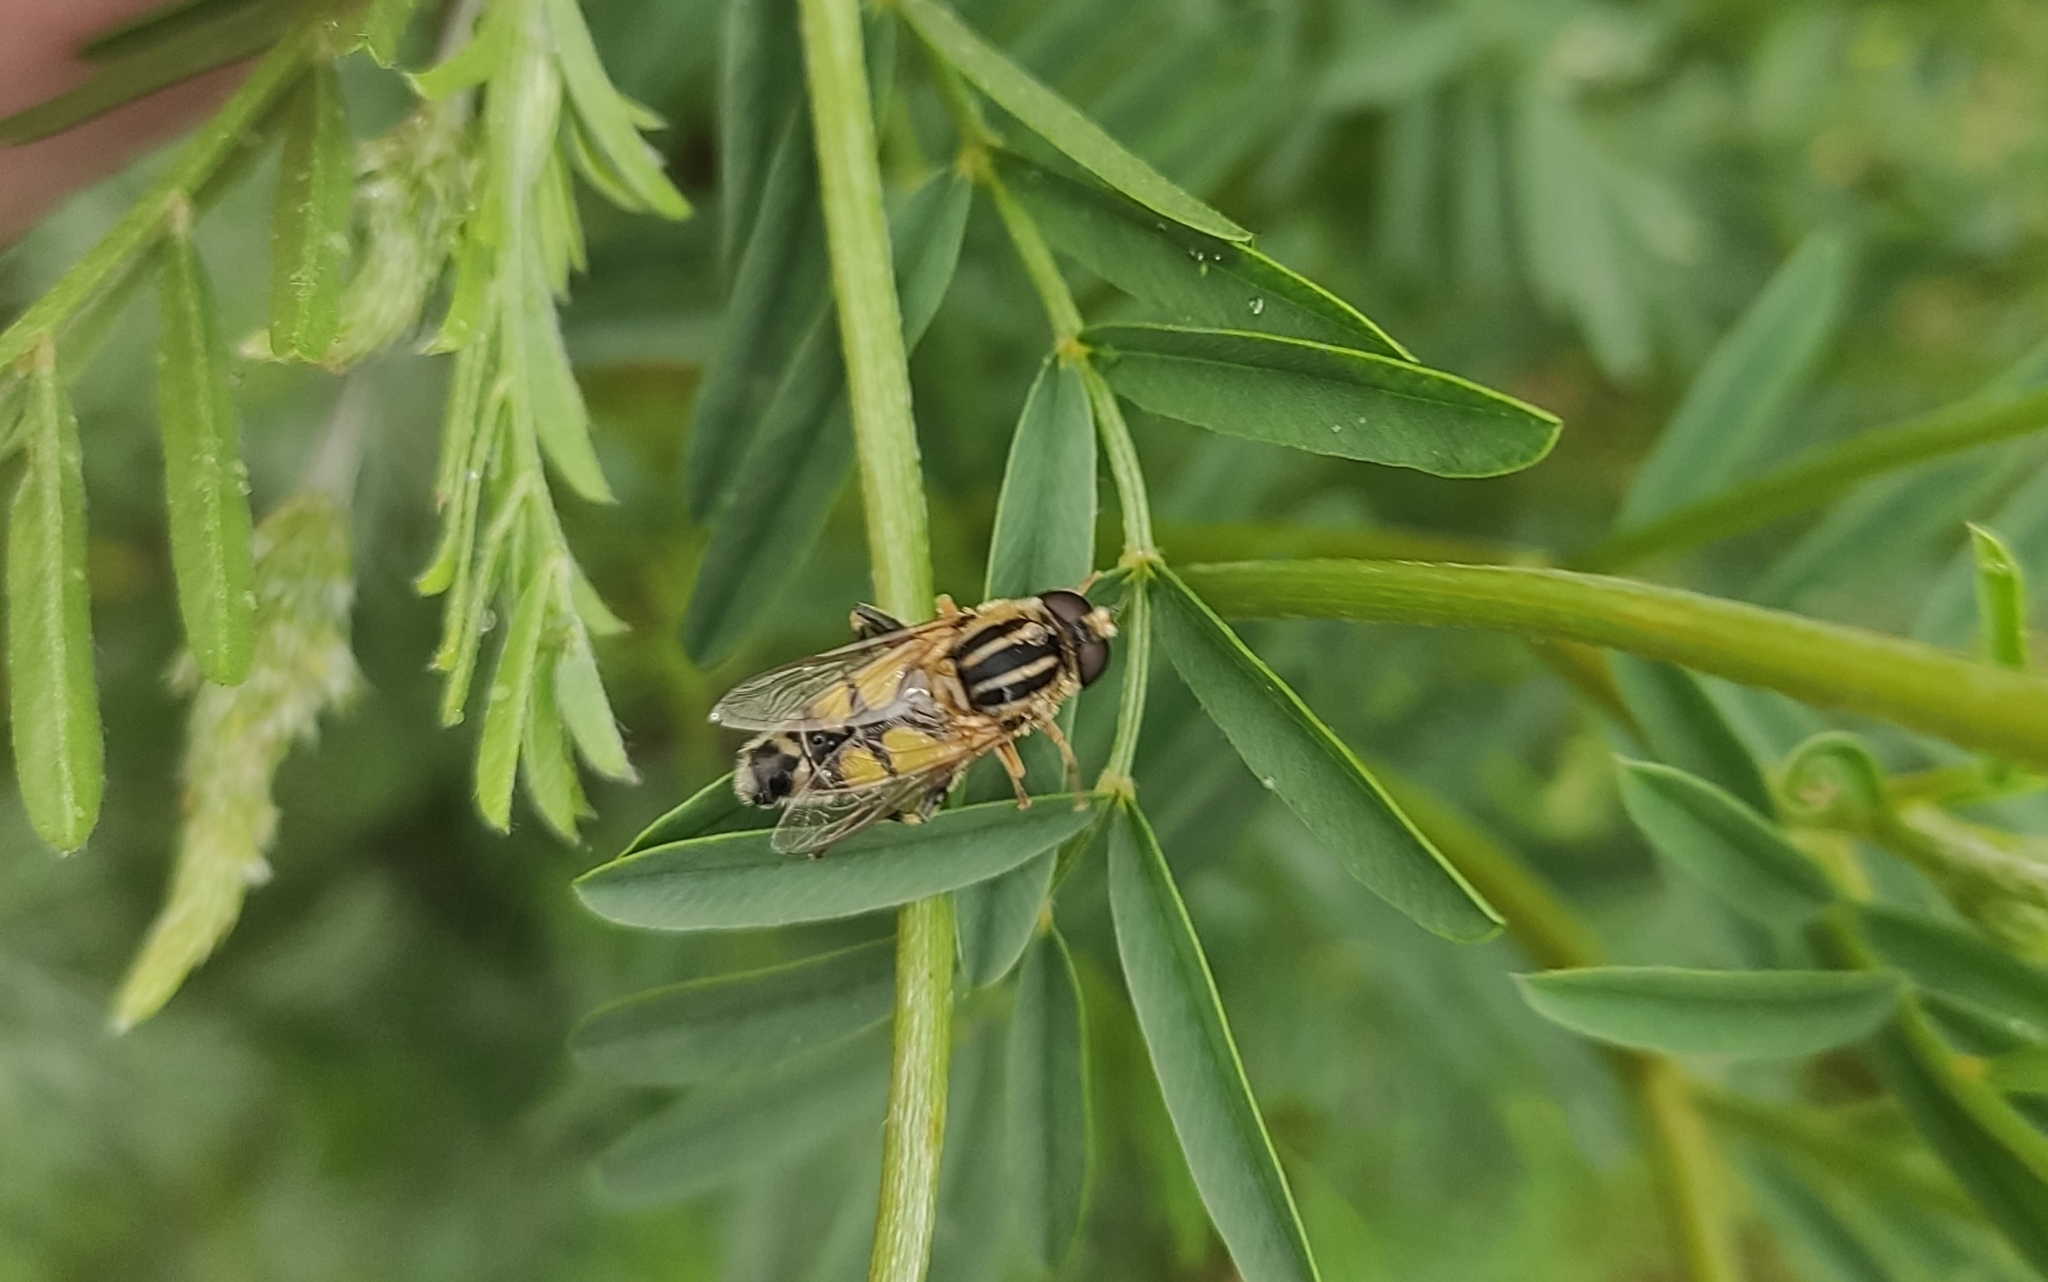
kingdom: Animalia
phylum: Arthropoda
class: Insecta
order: Diptera
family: Syrphidae
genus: Helophilus
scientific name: Helophilus trivittatus
